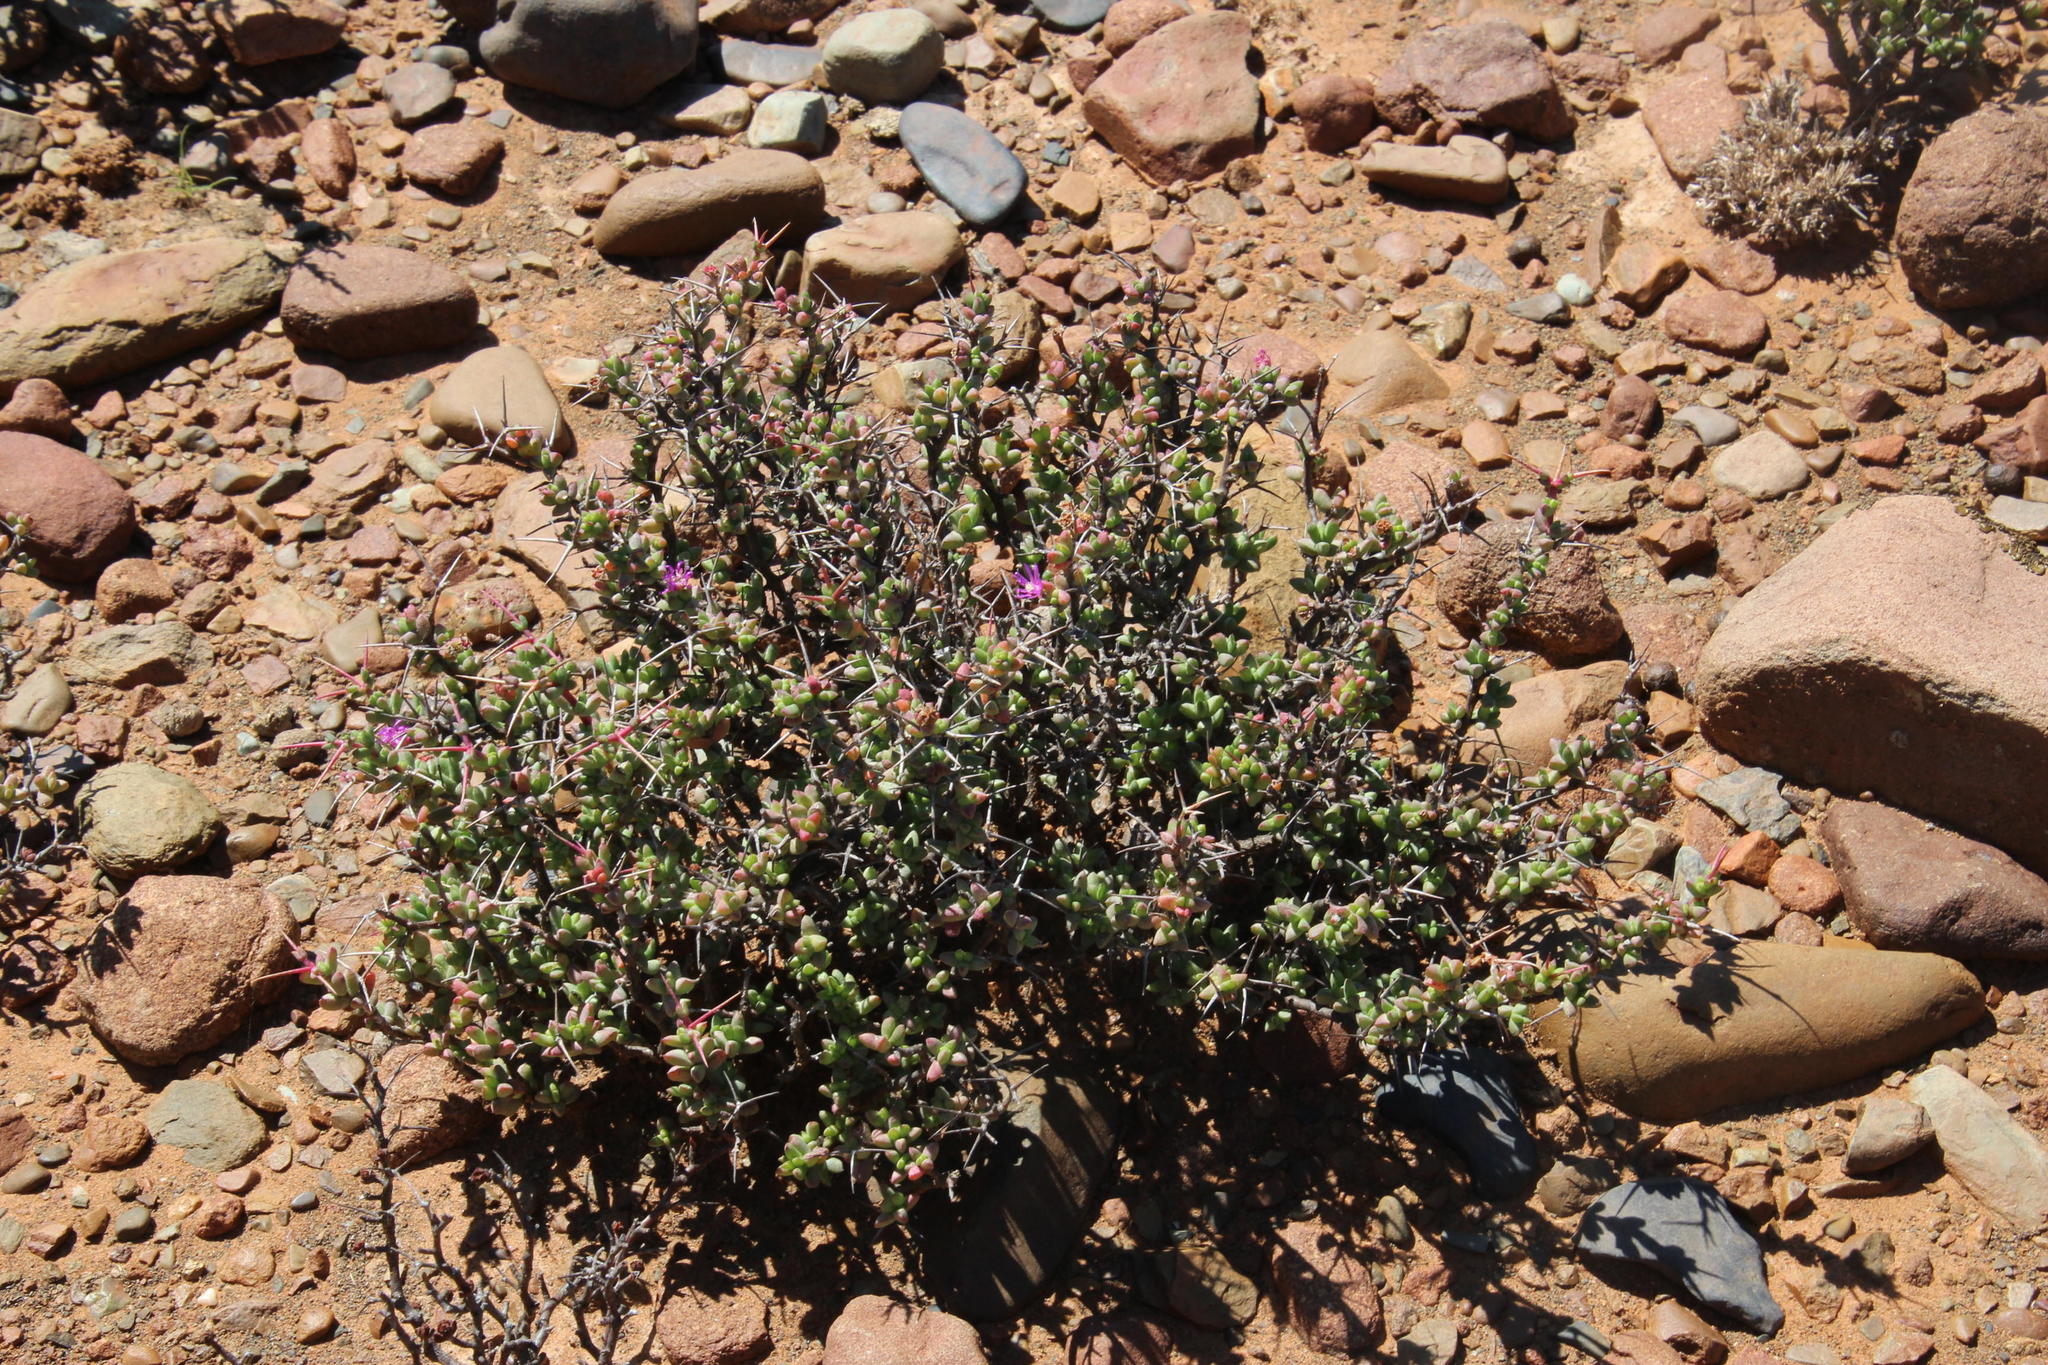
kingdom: Plantae
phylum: Tracheophyta
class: Magnoliopsida
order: Caryophyllales
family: Aizoaceae
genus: Ruschia
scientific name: Ruschia cradockensis
